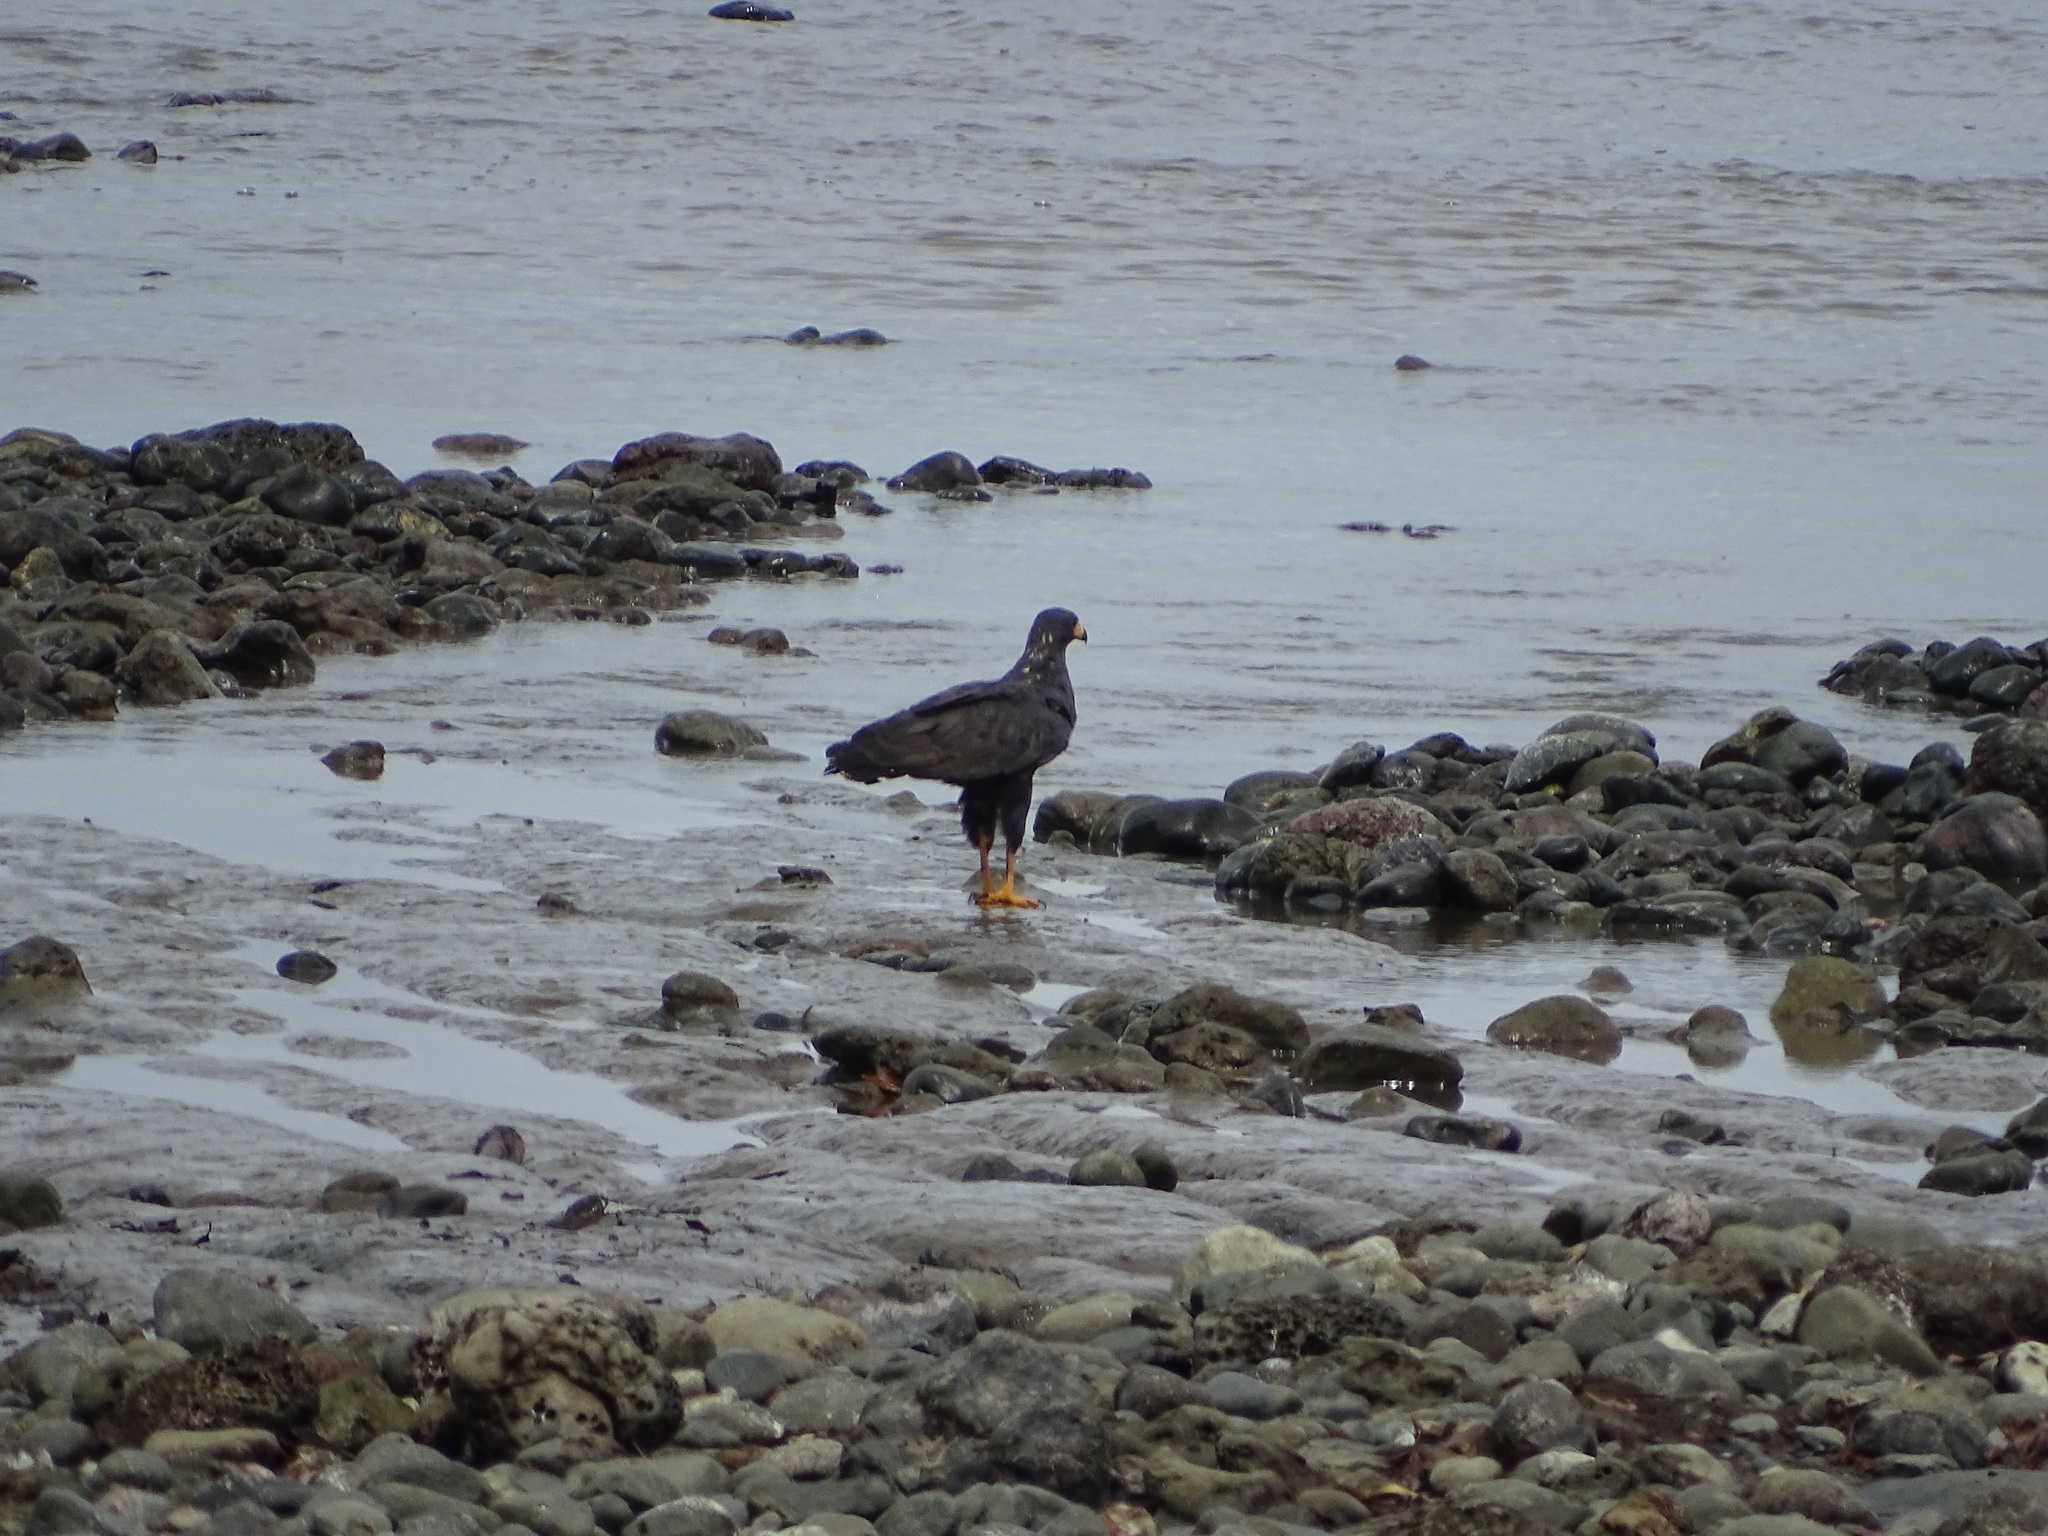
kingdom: Animalia
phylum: Chordata
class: Aves
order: Accipitriformes
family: Accipitridae
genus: Buteogallus
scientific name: Buteogallus anthracinus
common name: Common black hawk
